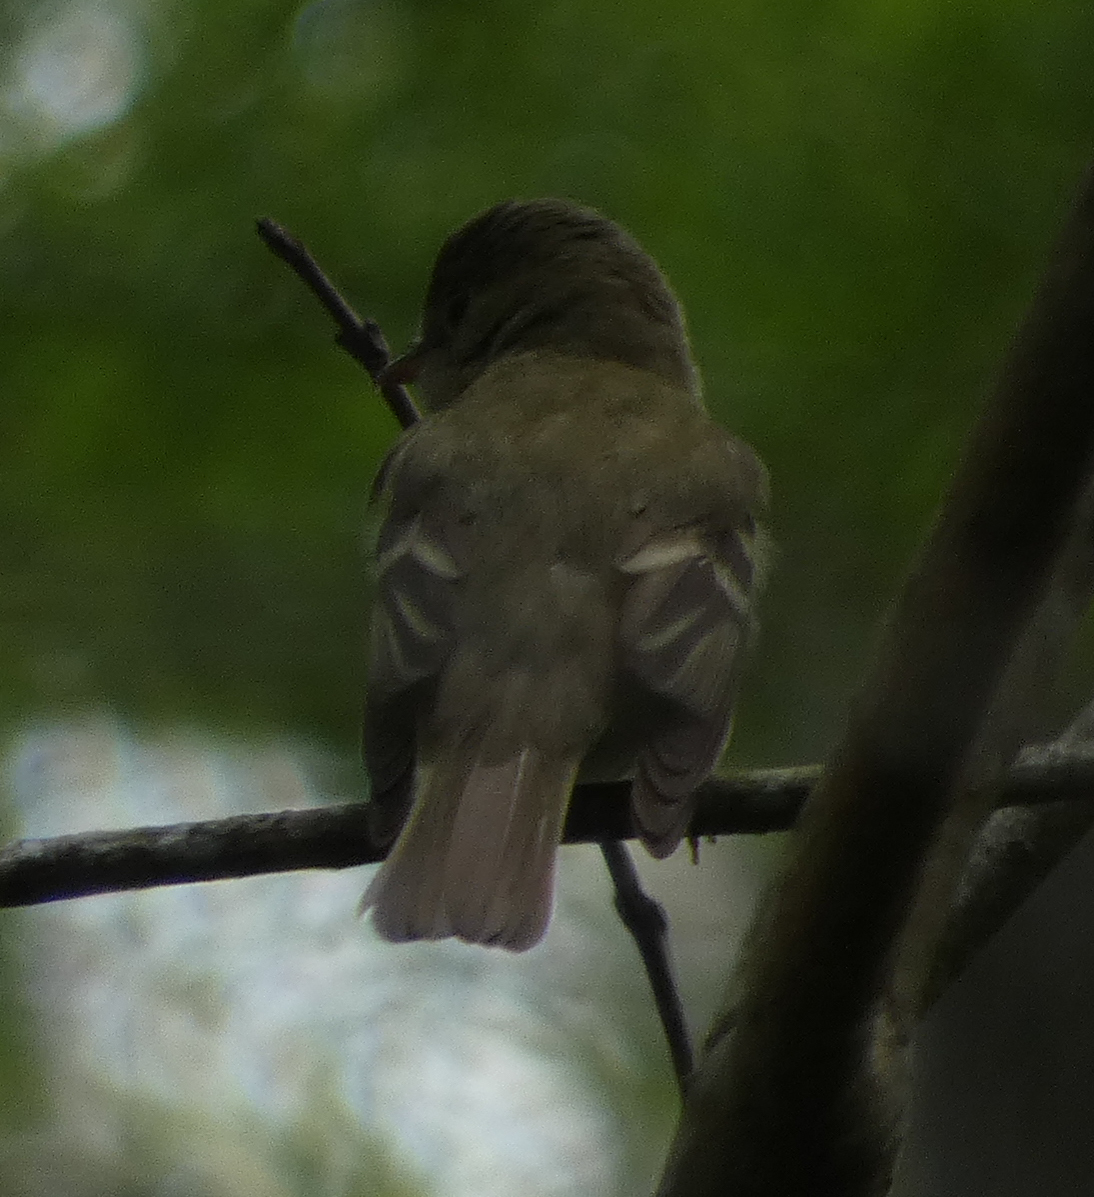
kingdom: Animalia
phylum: Chordata
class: Aves
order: Passeriformes
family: Tyrannidae
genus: Empidonax
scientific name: Empidonax virescens
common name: Acadian flycatcher
